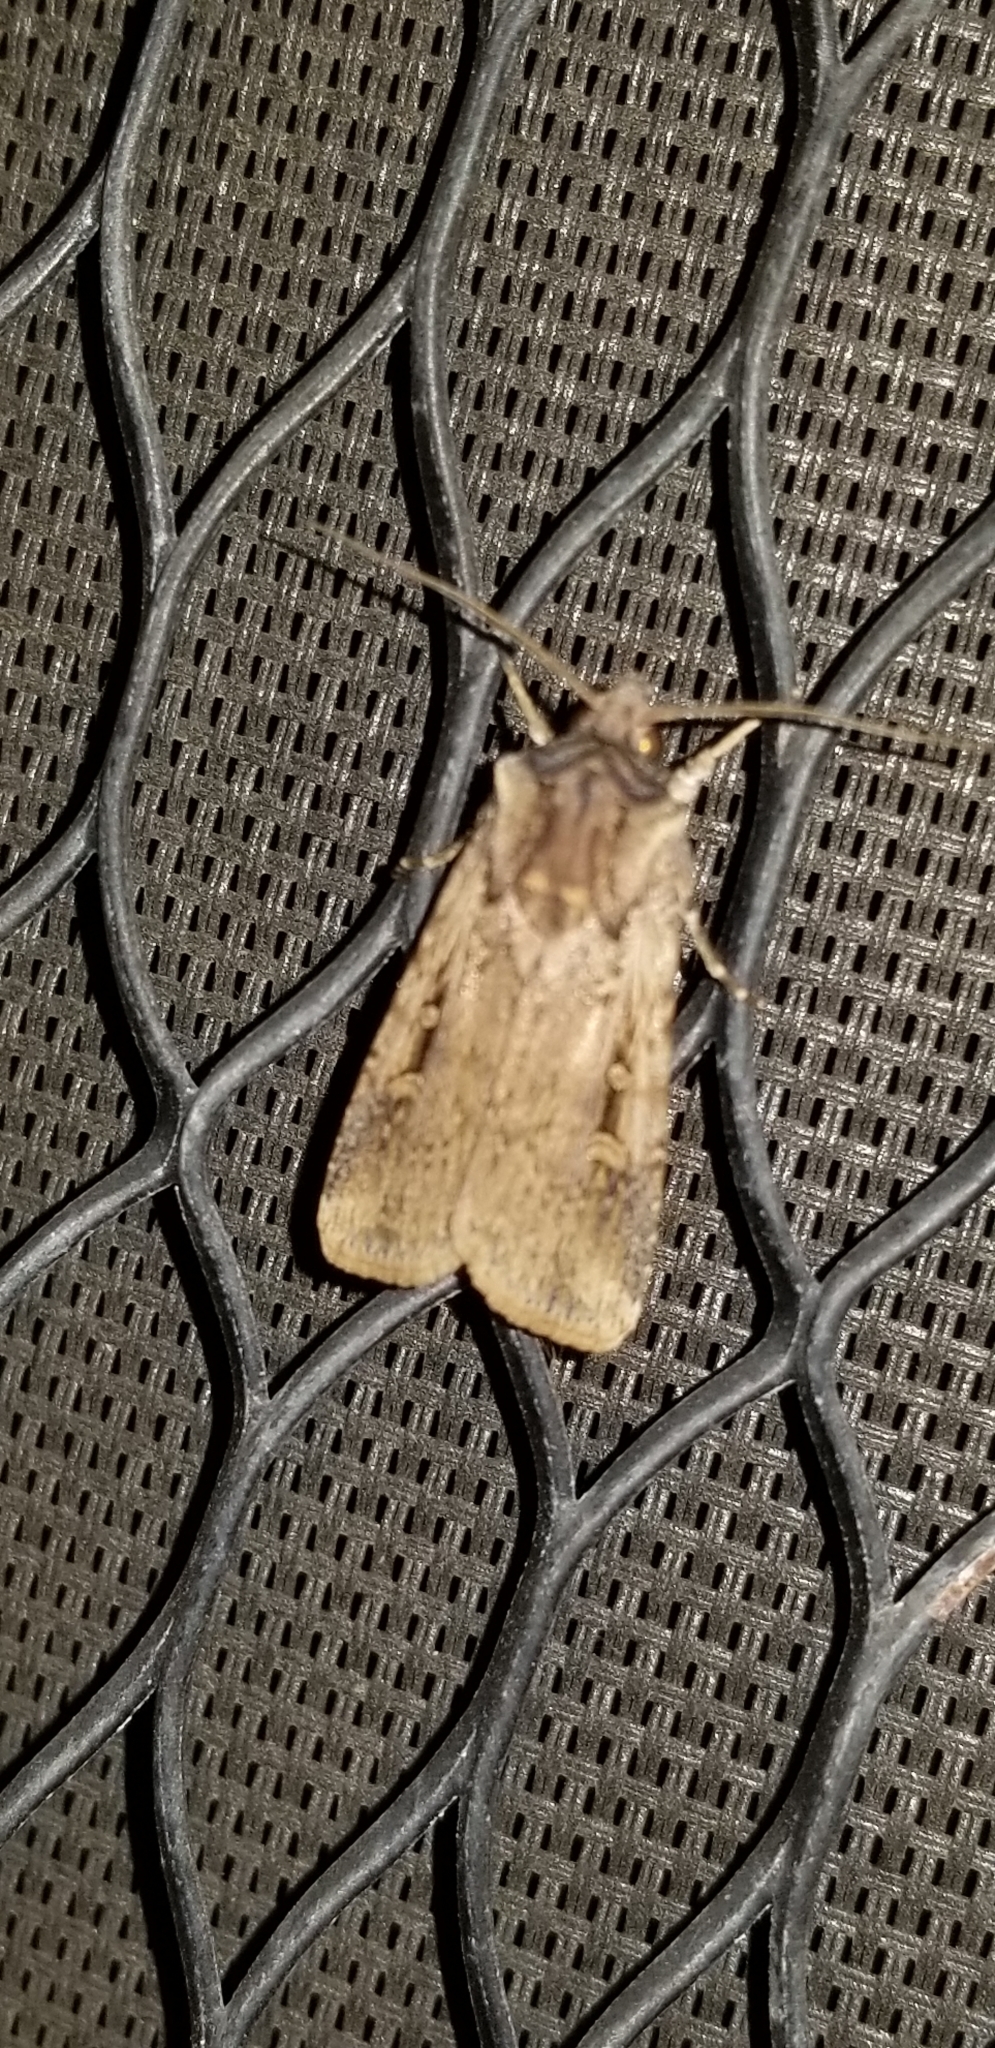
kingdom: Animalia
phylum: Arthropoda
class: Insecta
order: Lepidoptera
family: Noctuidae
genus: Feltia
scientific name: Feltia subterranea
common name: Granulate cutworm
